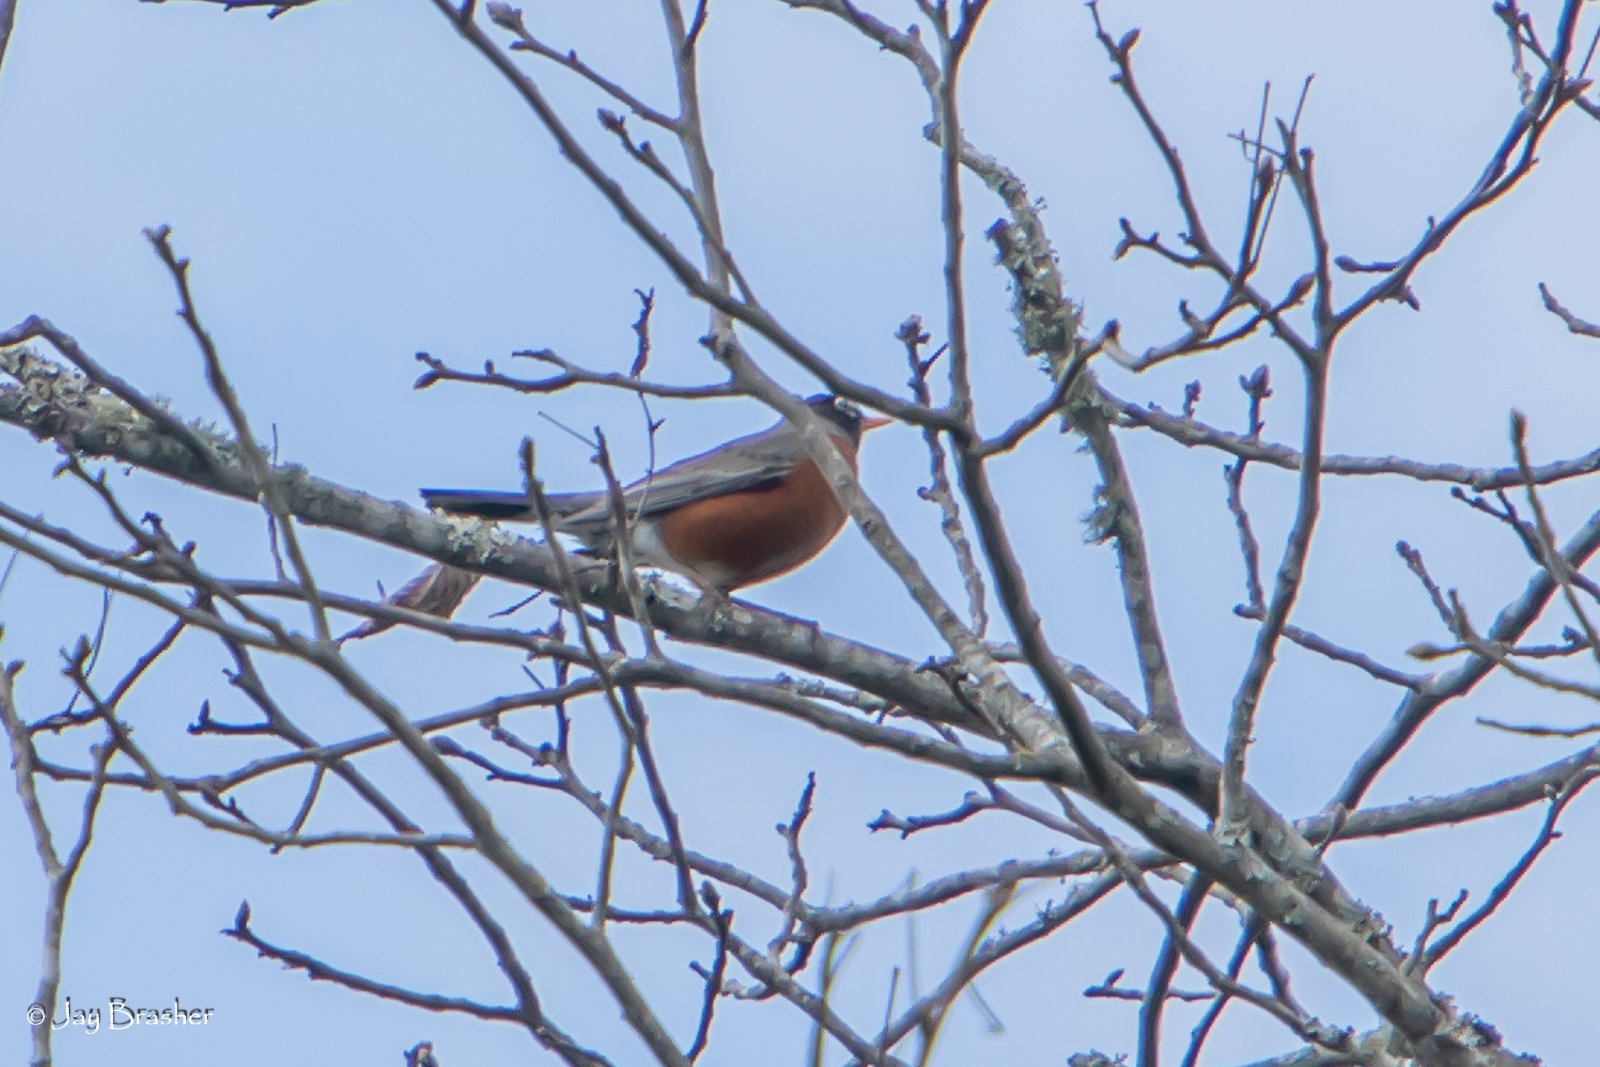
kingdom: Animalia
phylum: Chordata
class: Aves
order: Passeriformes
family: Turdidae
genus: Turdus
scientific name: Turdus migratorius
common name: American robin
